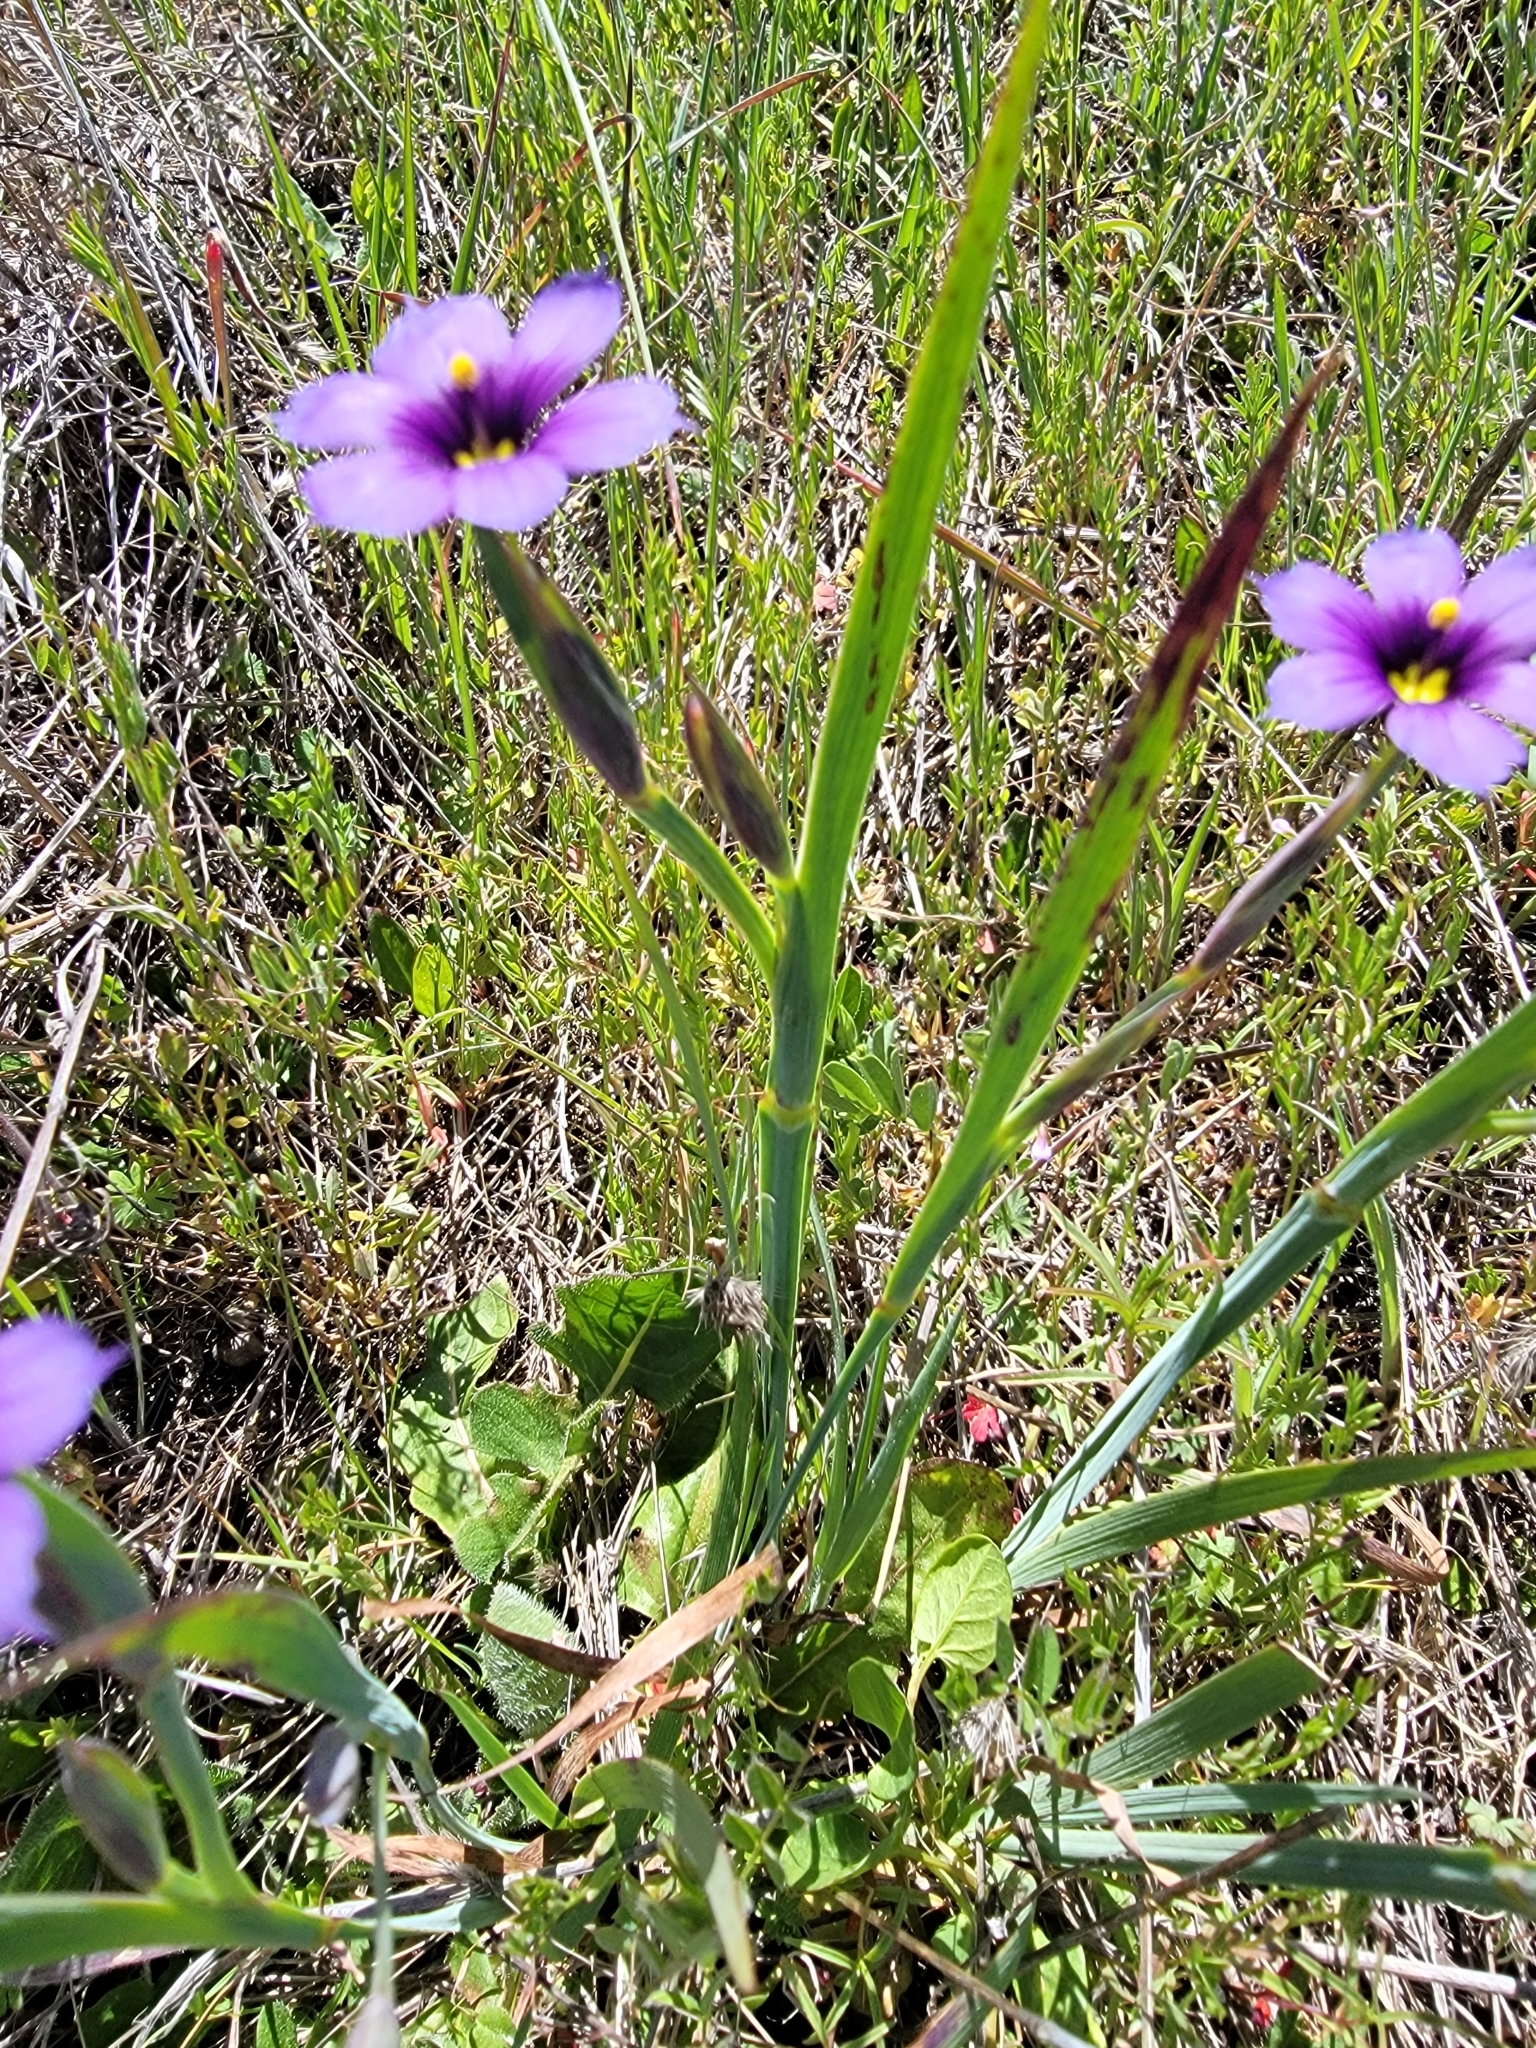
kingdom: Plantae
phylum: Tracheophyta
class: Liliopsida
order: Asparagales
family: Iridaceae
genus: Sisyrinchium
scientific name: Sisyrinchium bellum
